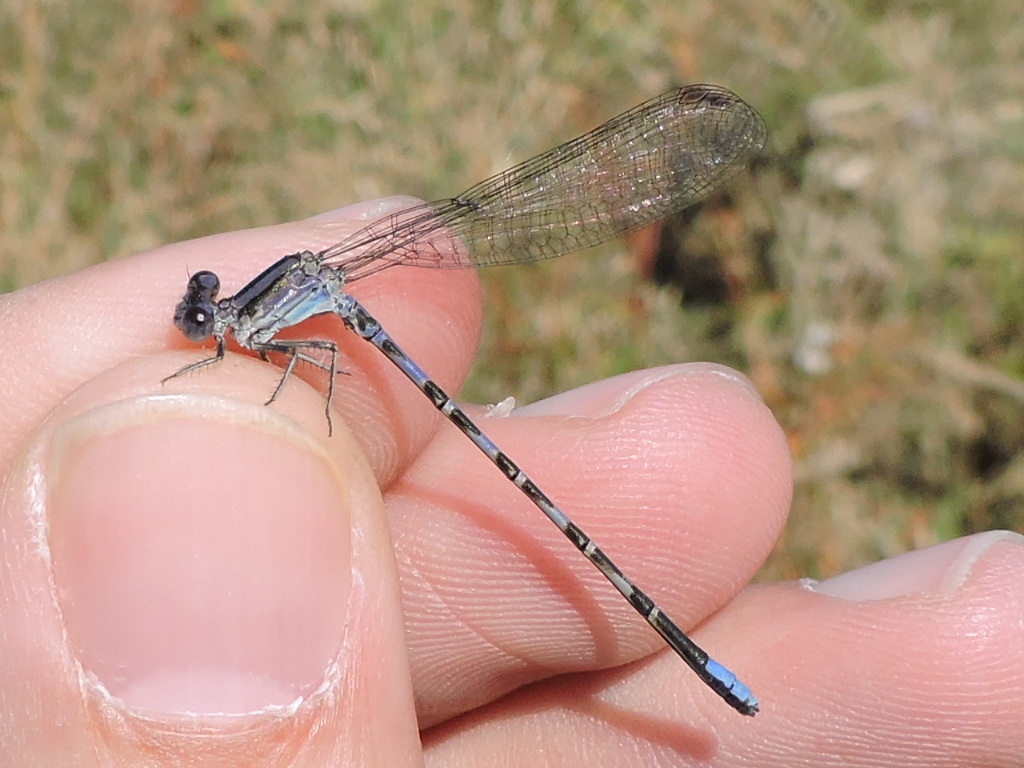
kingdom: Animalia
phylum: Arthropoda
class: Insecta
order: Odonata
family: Coenagrionidae
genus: Argia
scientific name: Argia immunda
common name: Kiowa dancer
